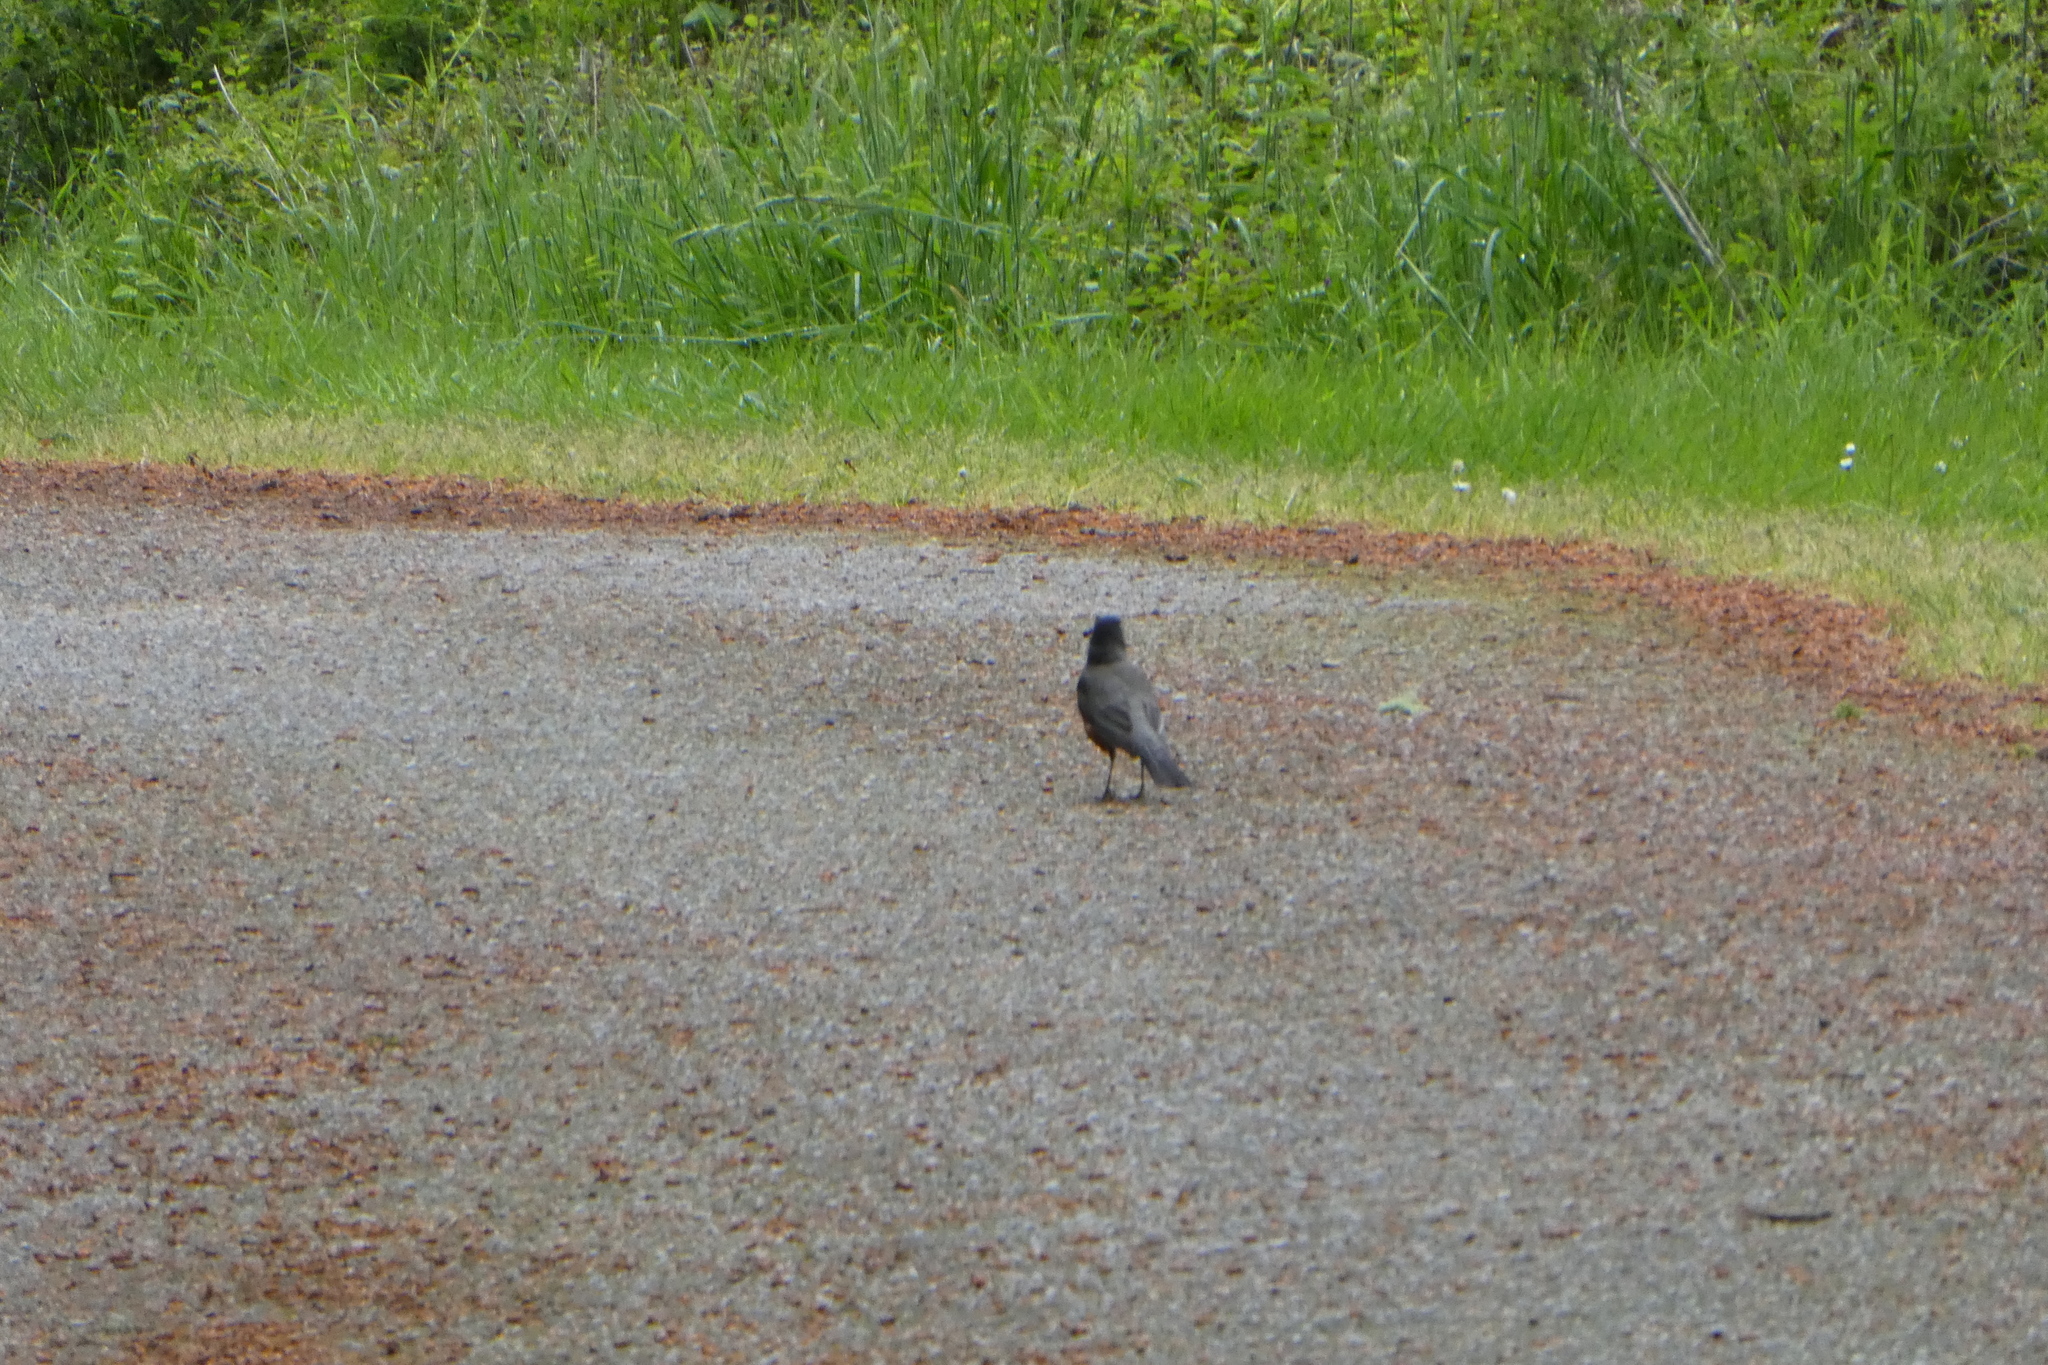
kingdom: Animalia
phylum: Chordata
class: Aves
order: Passeriformes
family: Turdidae
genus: Turdus
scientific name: Turdus migratorius
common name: American robin
